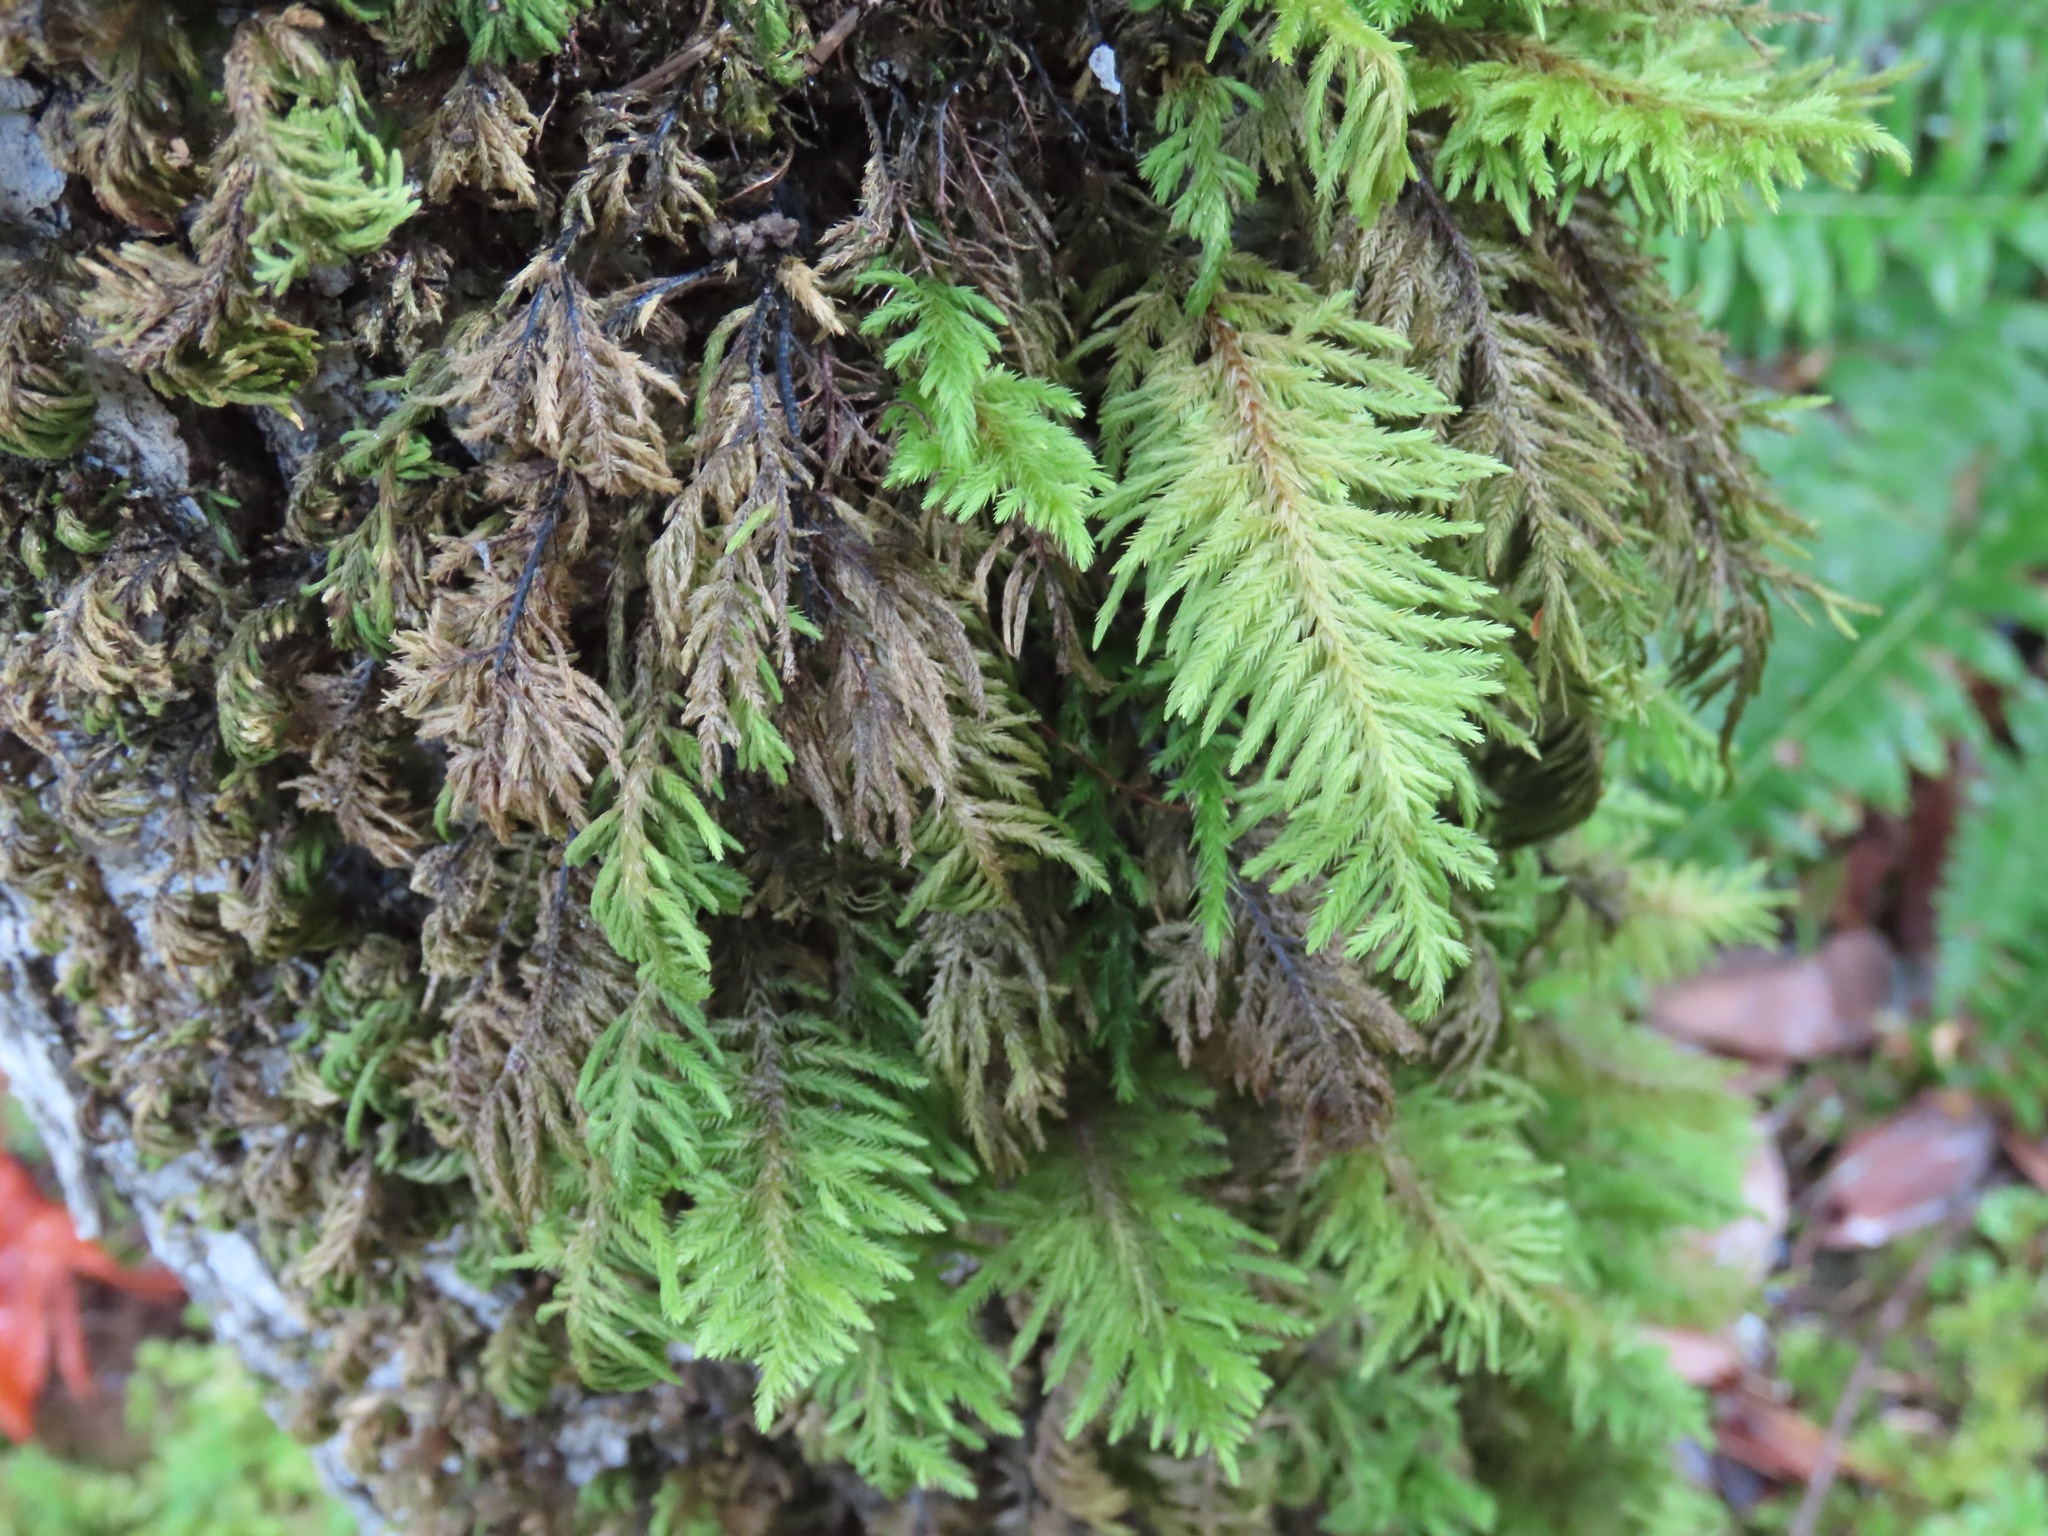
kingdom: Plantae
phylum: Bryophyta
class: Bryopsida
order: Hypnales
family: Cryphaeaceae
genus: Dendroalsia
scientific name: Dendroalsia abietina
